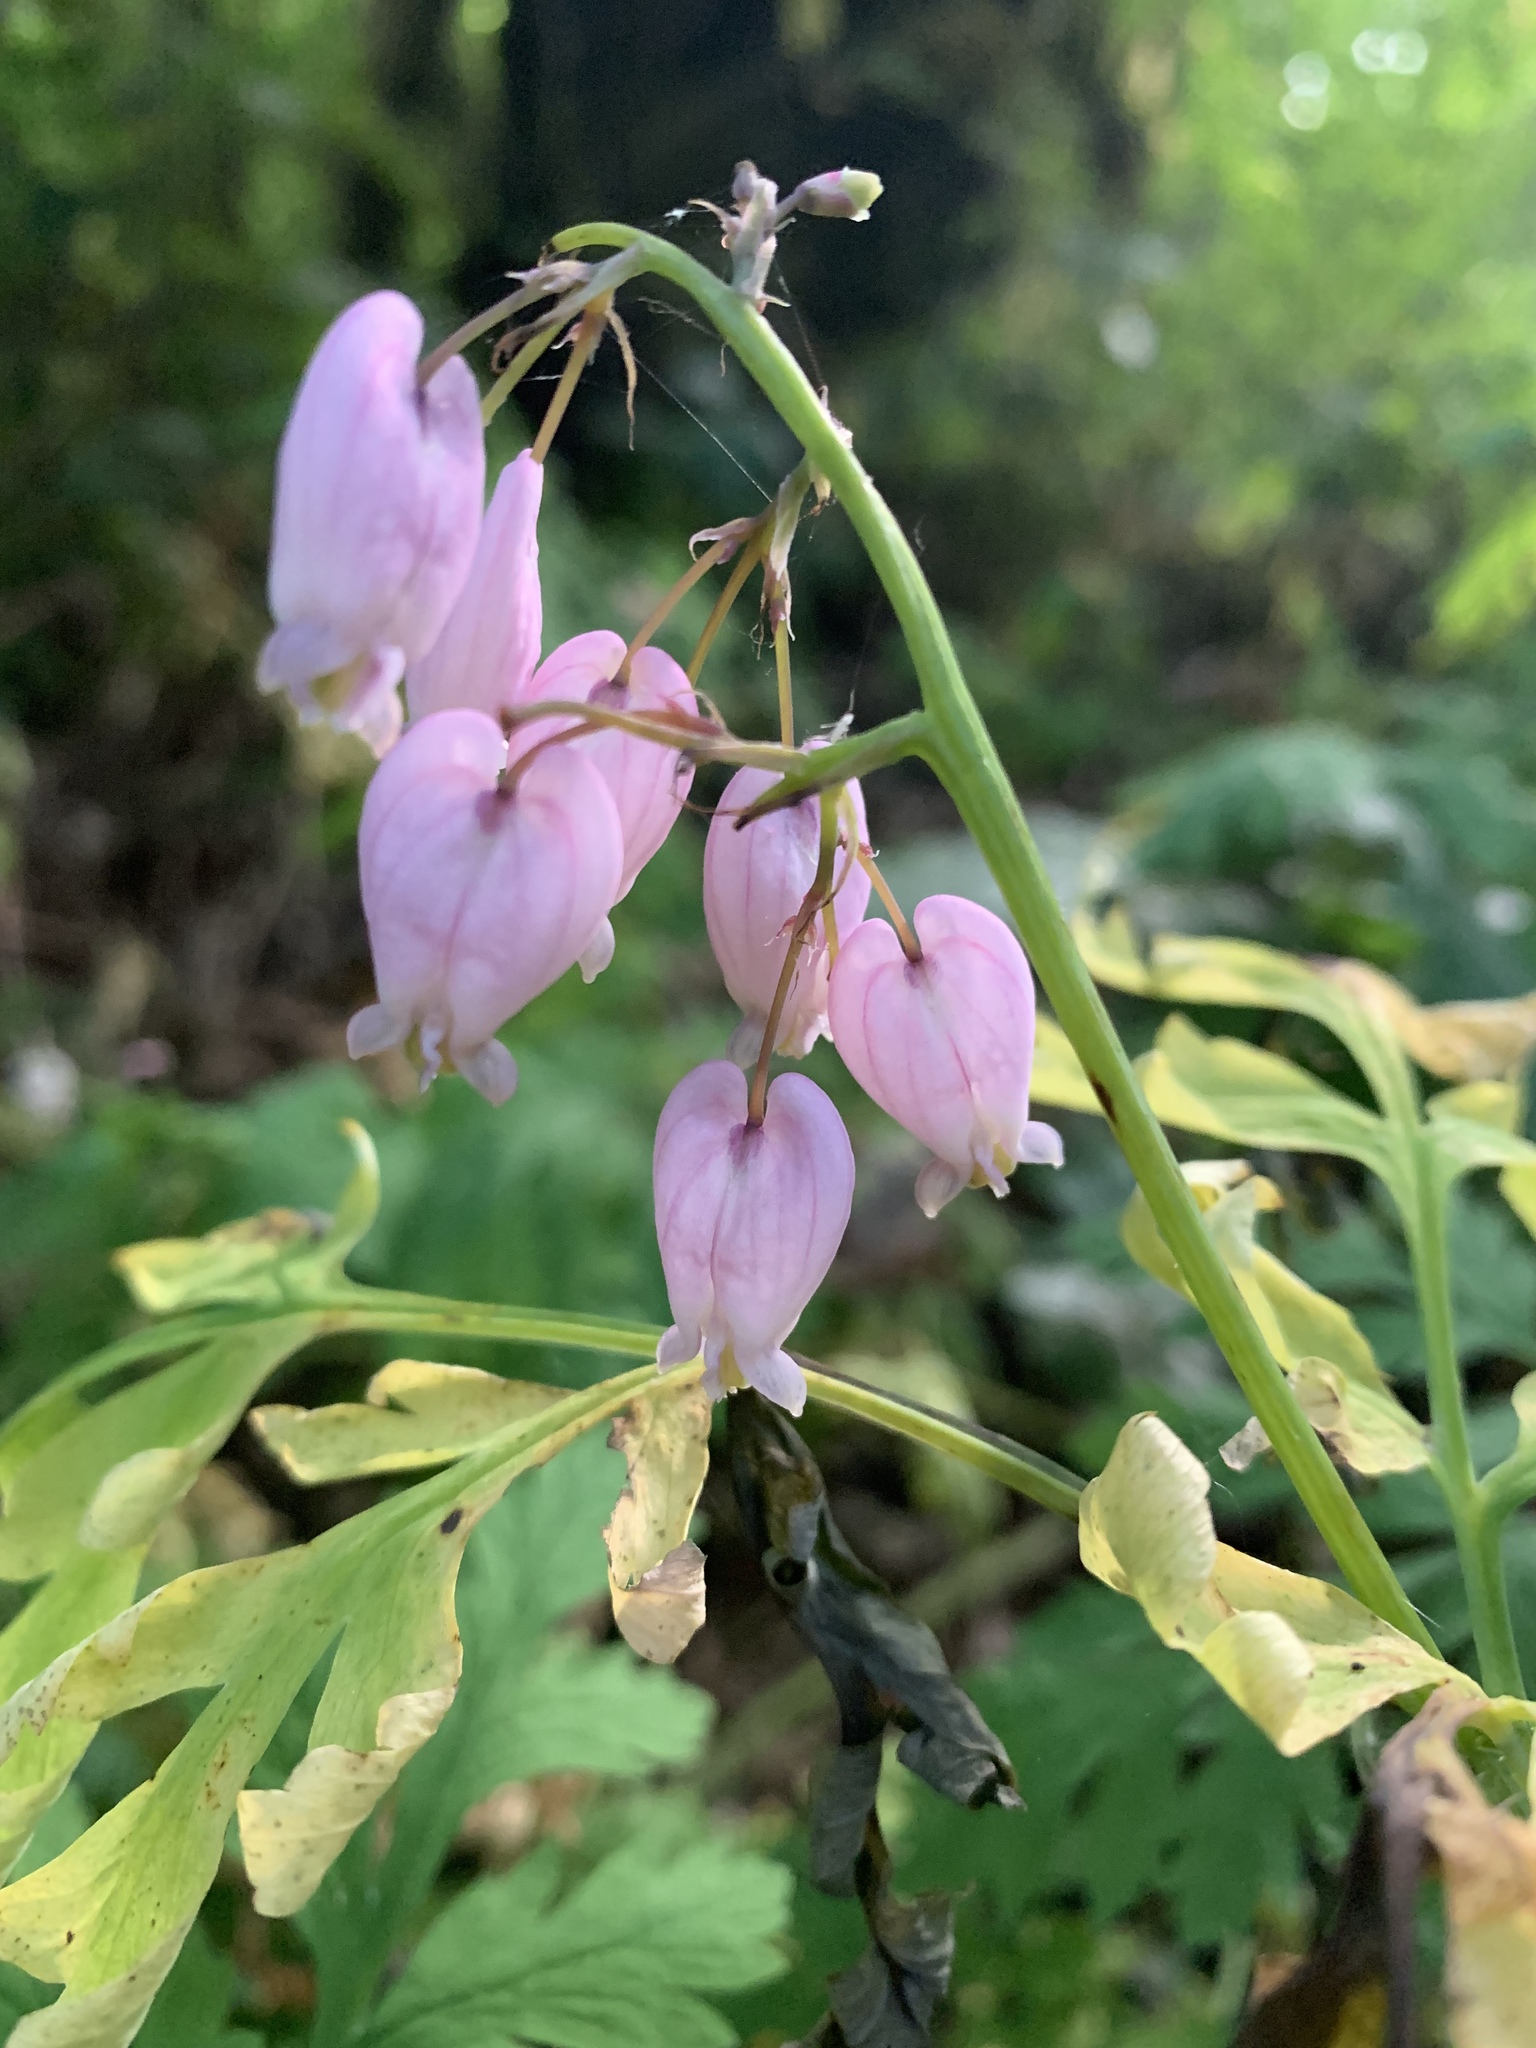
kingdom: Plantae
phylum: Tracheophyta
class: Magnoliopsida
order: Ranunculales
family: Papaveraceae
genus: Dicentra
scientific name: Dicentra formosa
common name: Bleeding-heart
